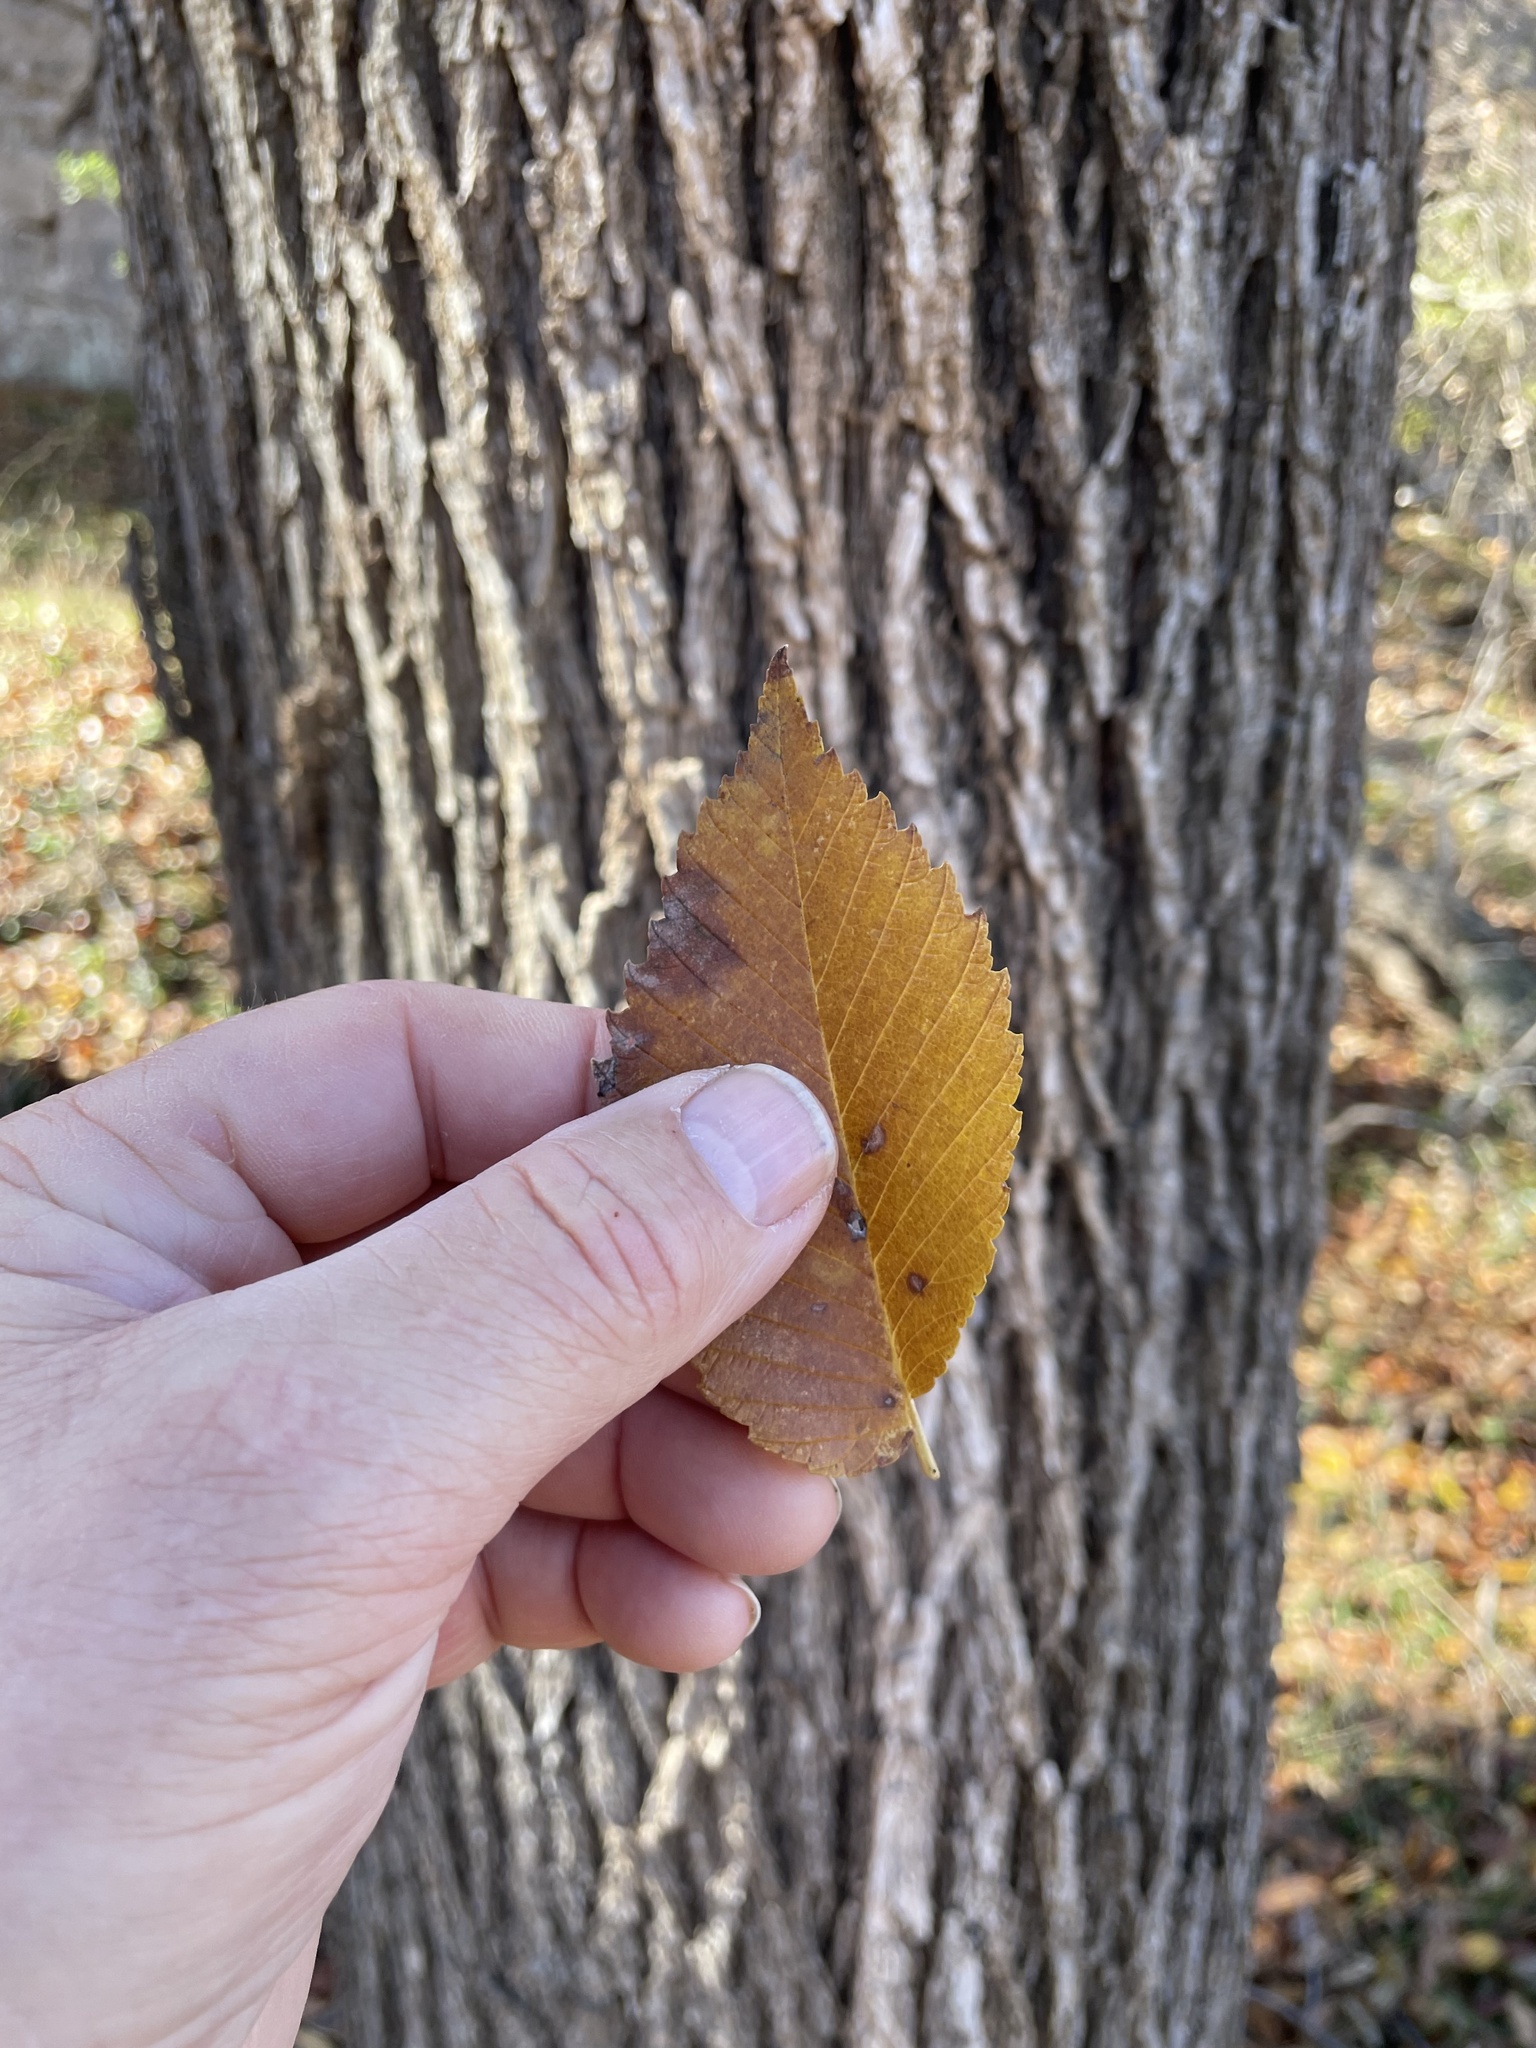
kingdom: Plantae
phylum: Tracheophyta
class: Magnoliopsida
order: Rosales
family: Ulmaceae
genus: Ulmus
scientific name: Ulmus americana
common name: American elm
